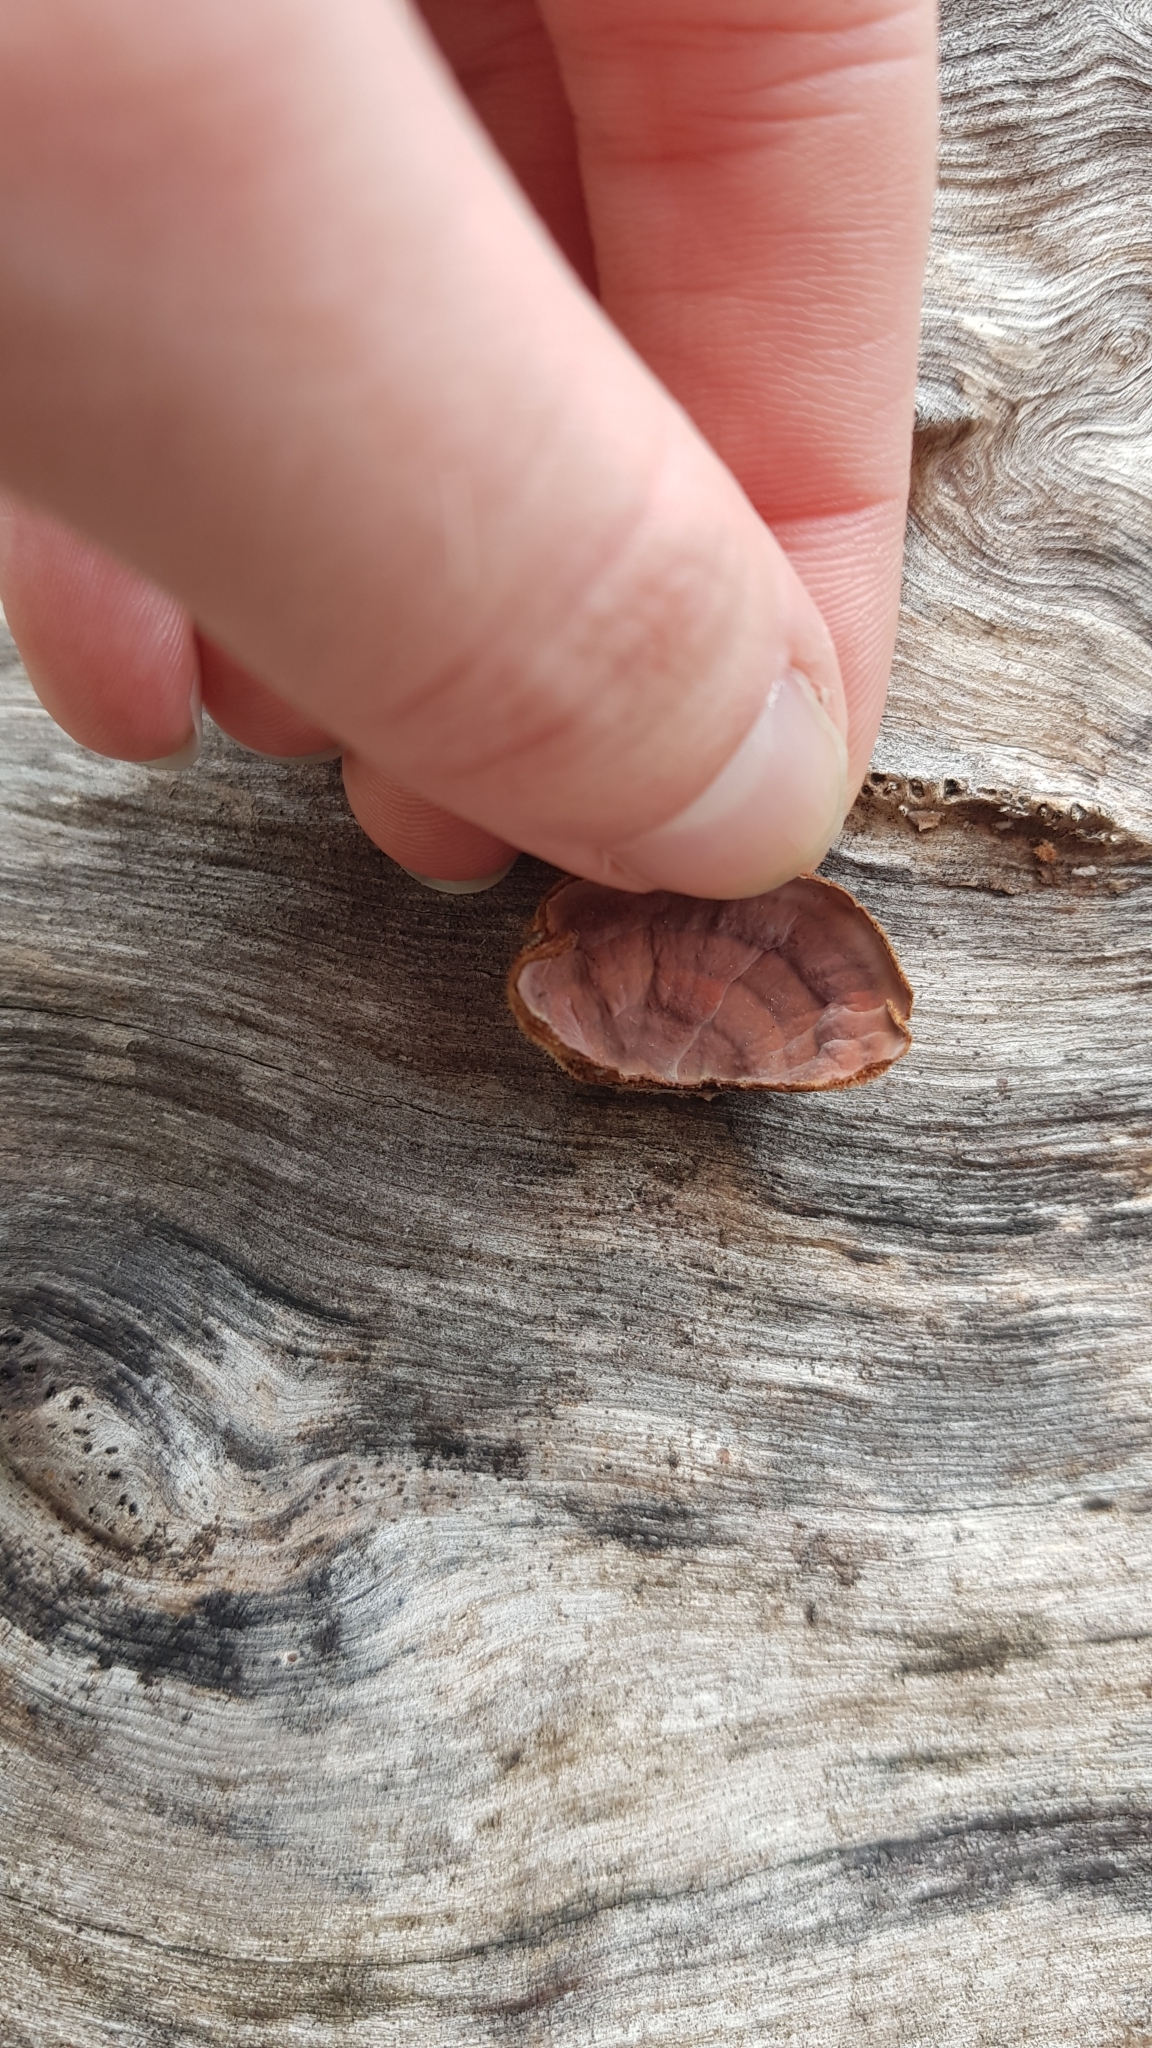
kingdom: Fungi
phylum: Basidiomycota
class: Agaricomycetes
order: Russulales
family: Stereaceae
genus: Xylobolus
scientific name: Xylobolus illudens
